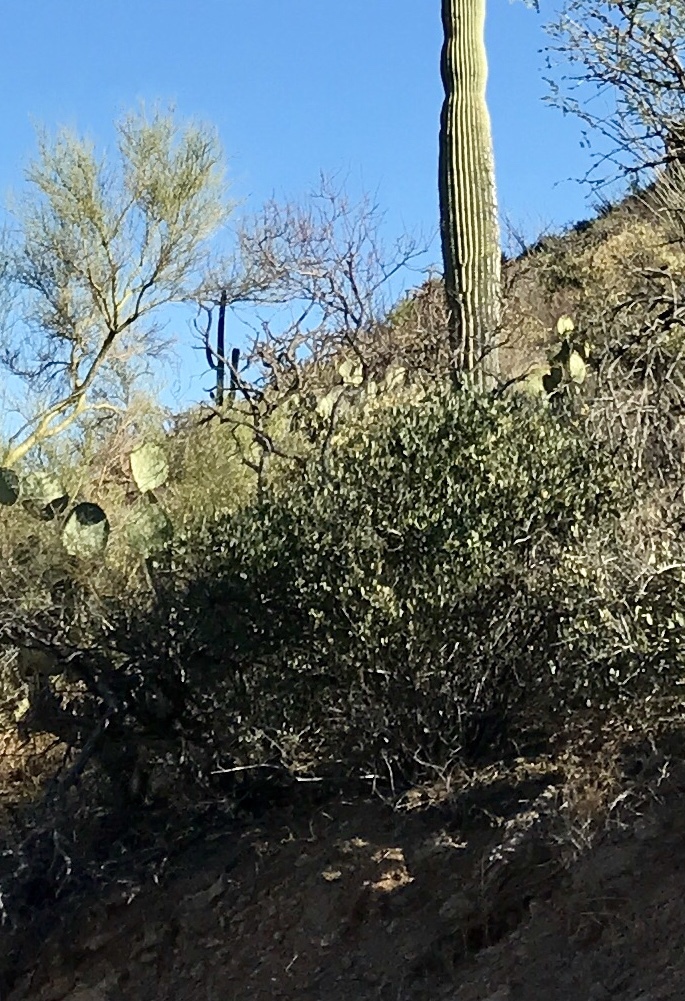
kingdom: Plantae
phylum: Tracheophyta
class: Magnoliopsida
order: Caryophyllales
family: Simmondsiaceae
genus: Simmondsia
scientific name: Simmondsia chinensis
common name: Jojoba
